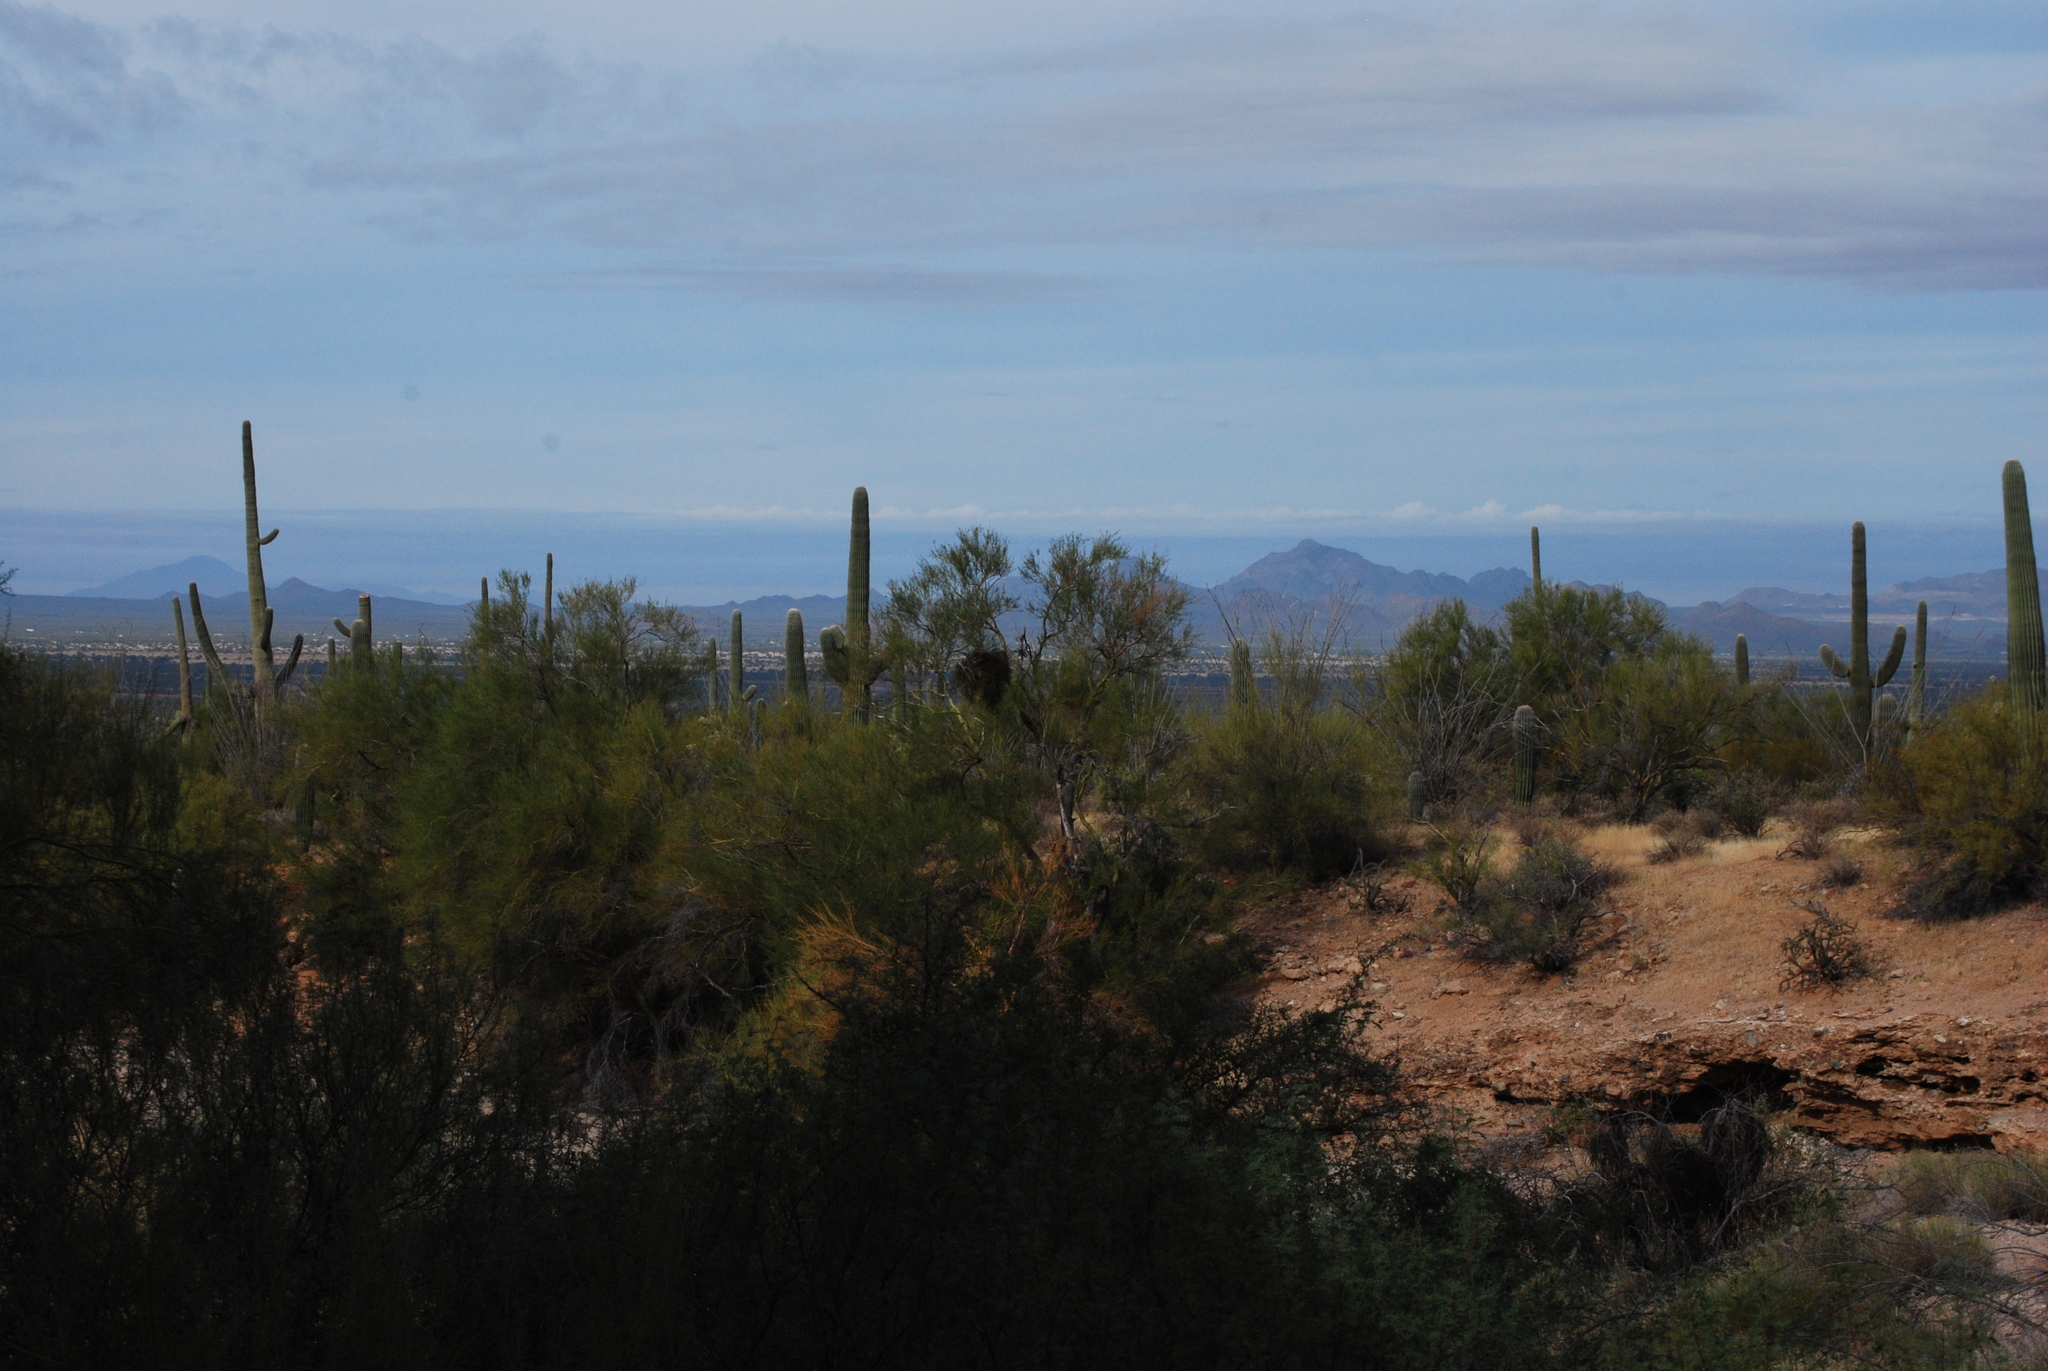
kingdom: Plantae
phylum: Tracheophyta
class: Magnoliopsida
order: Caryophyllales
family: Cactaceae
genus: Carnegiea
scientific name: Carnegiea gigantea
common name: Saguaro
